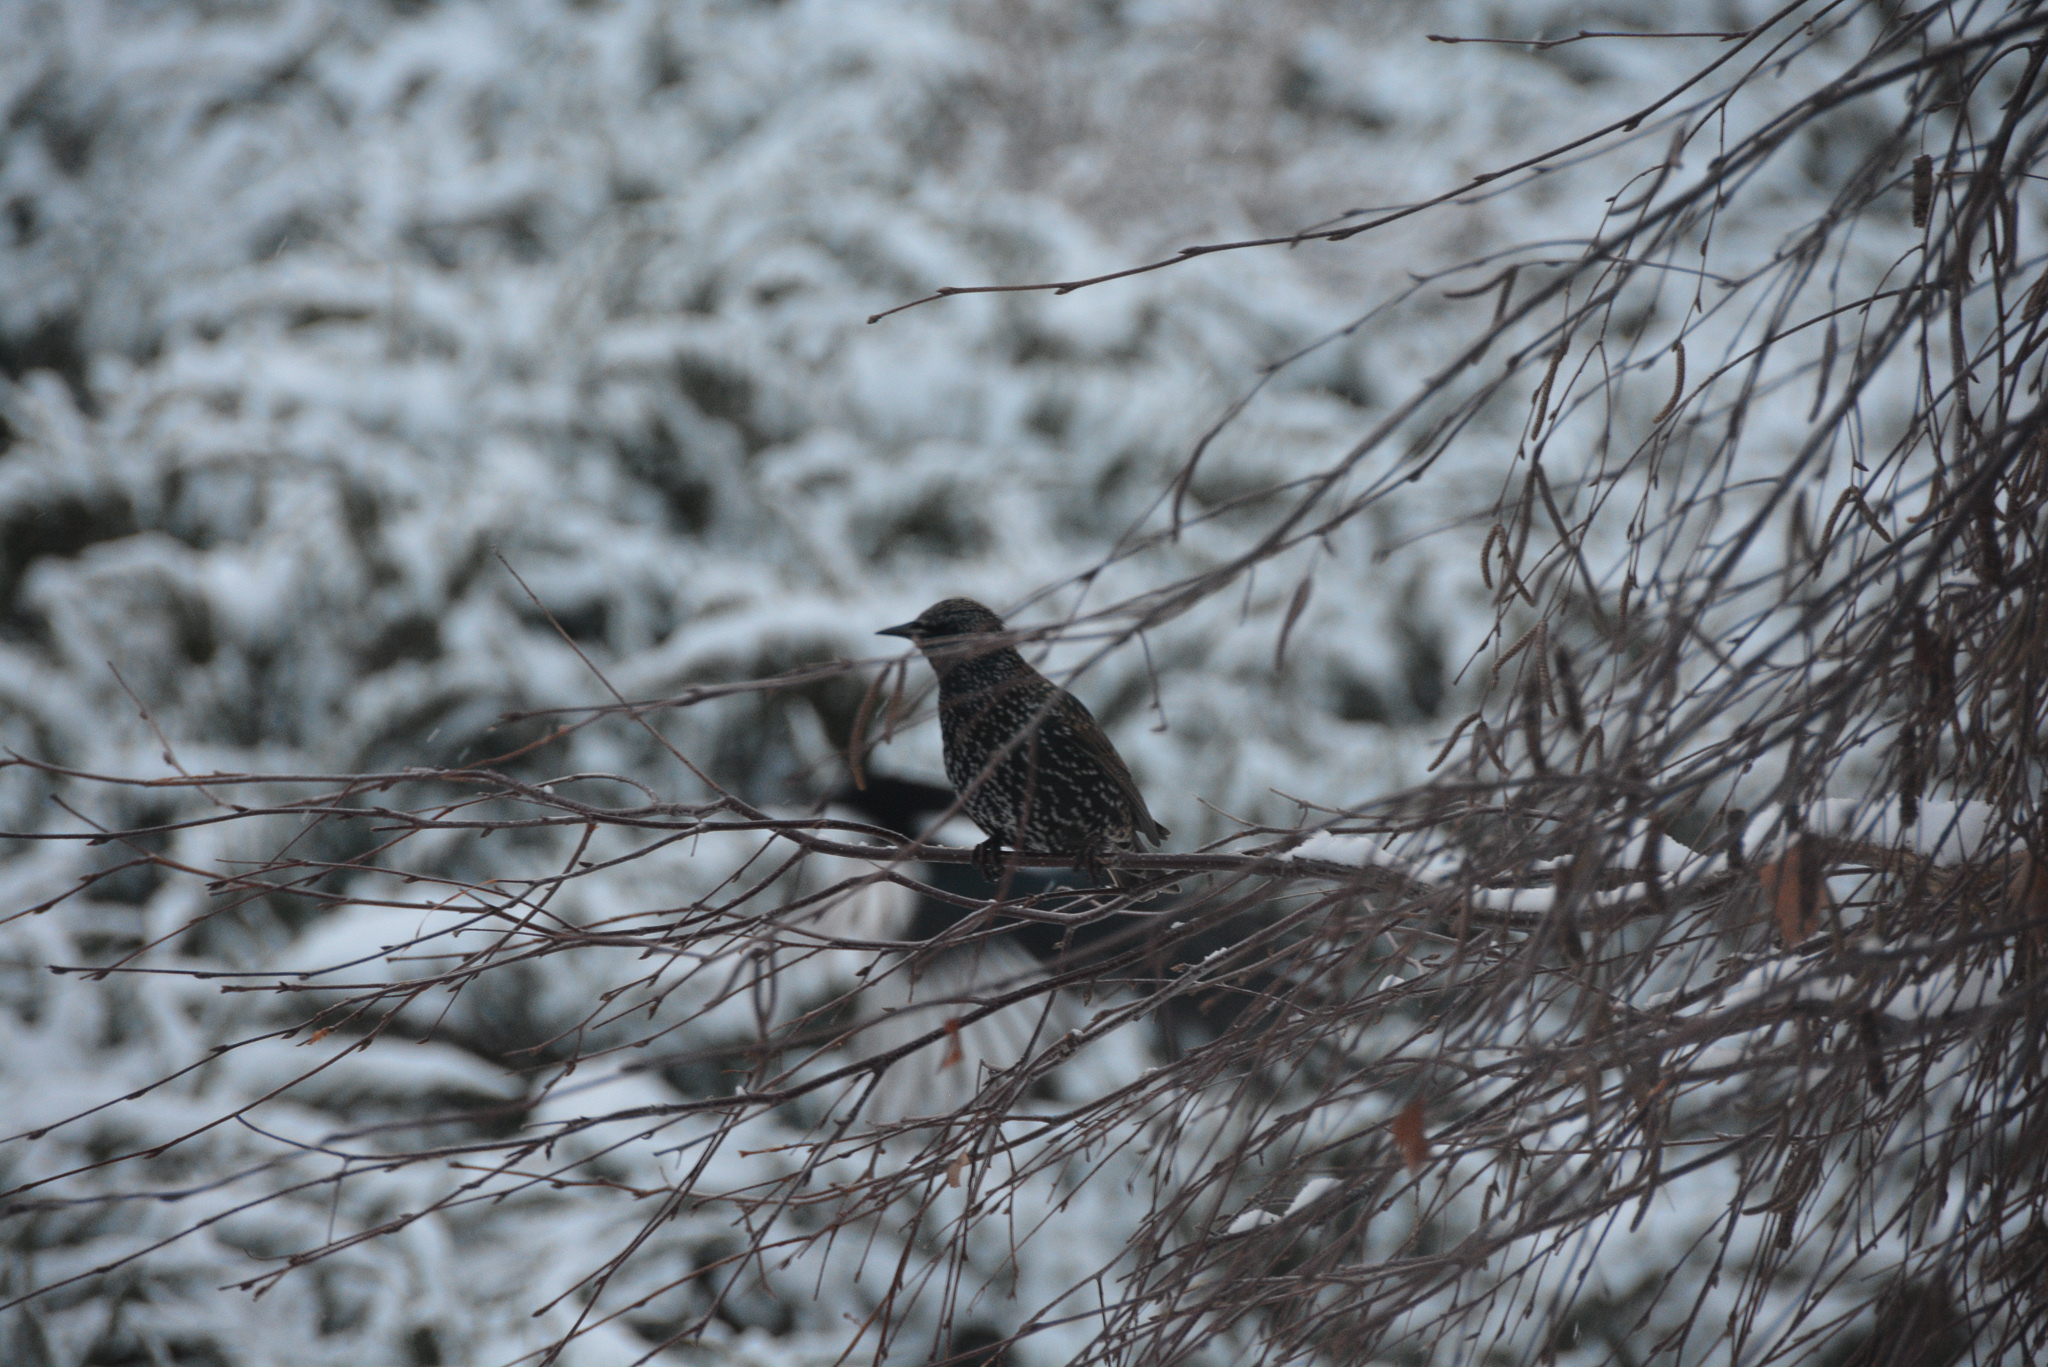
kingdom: Animalia
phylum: Chordata
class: Aves
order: Passeriformes
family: Sturnidae
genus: Sturnus
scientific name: Sturnus vulgaris
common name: Common starling
